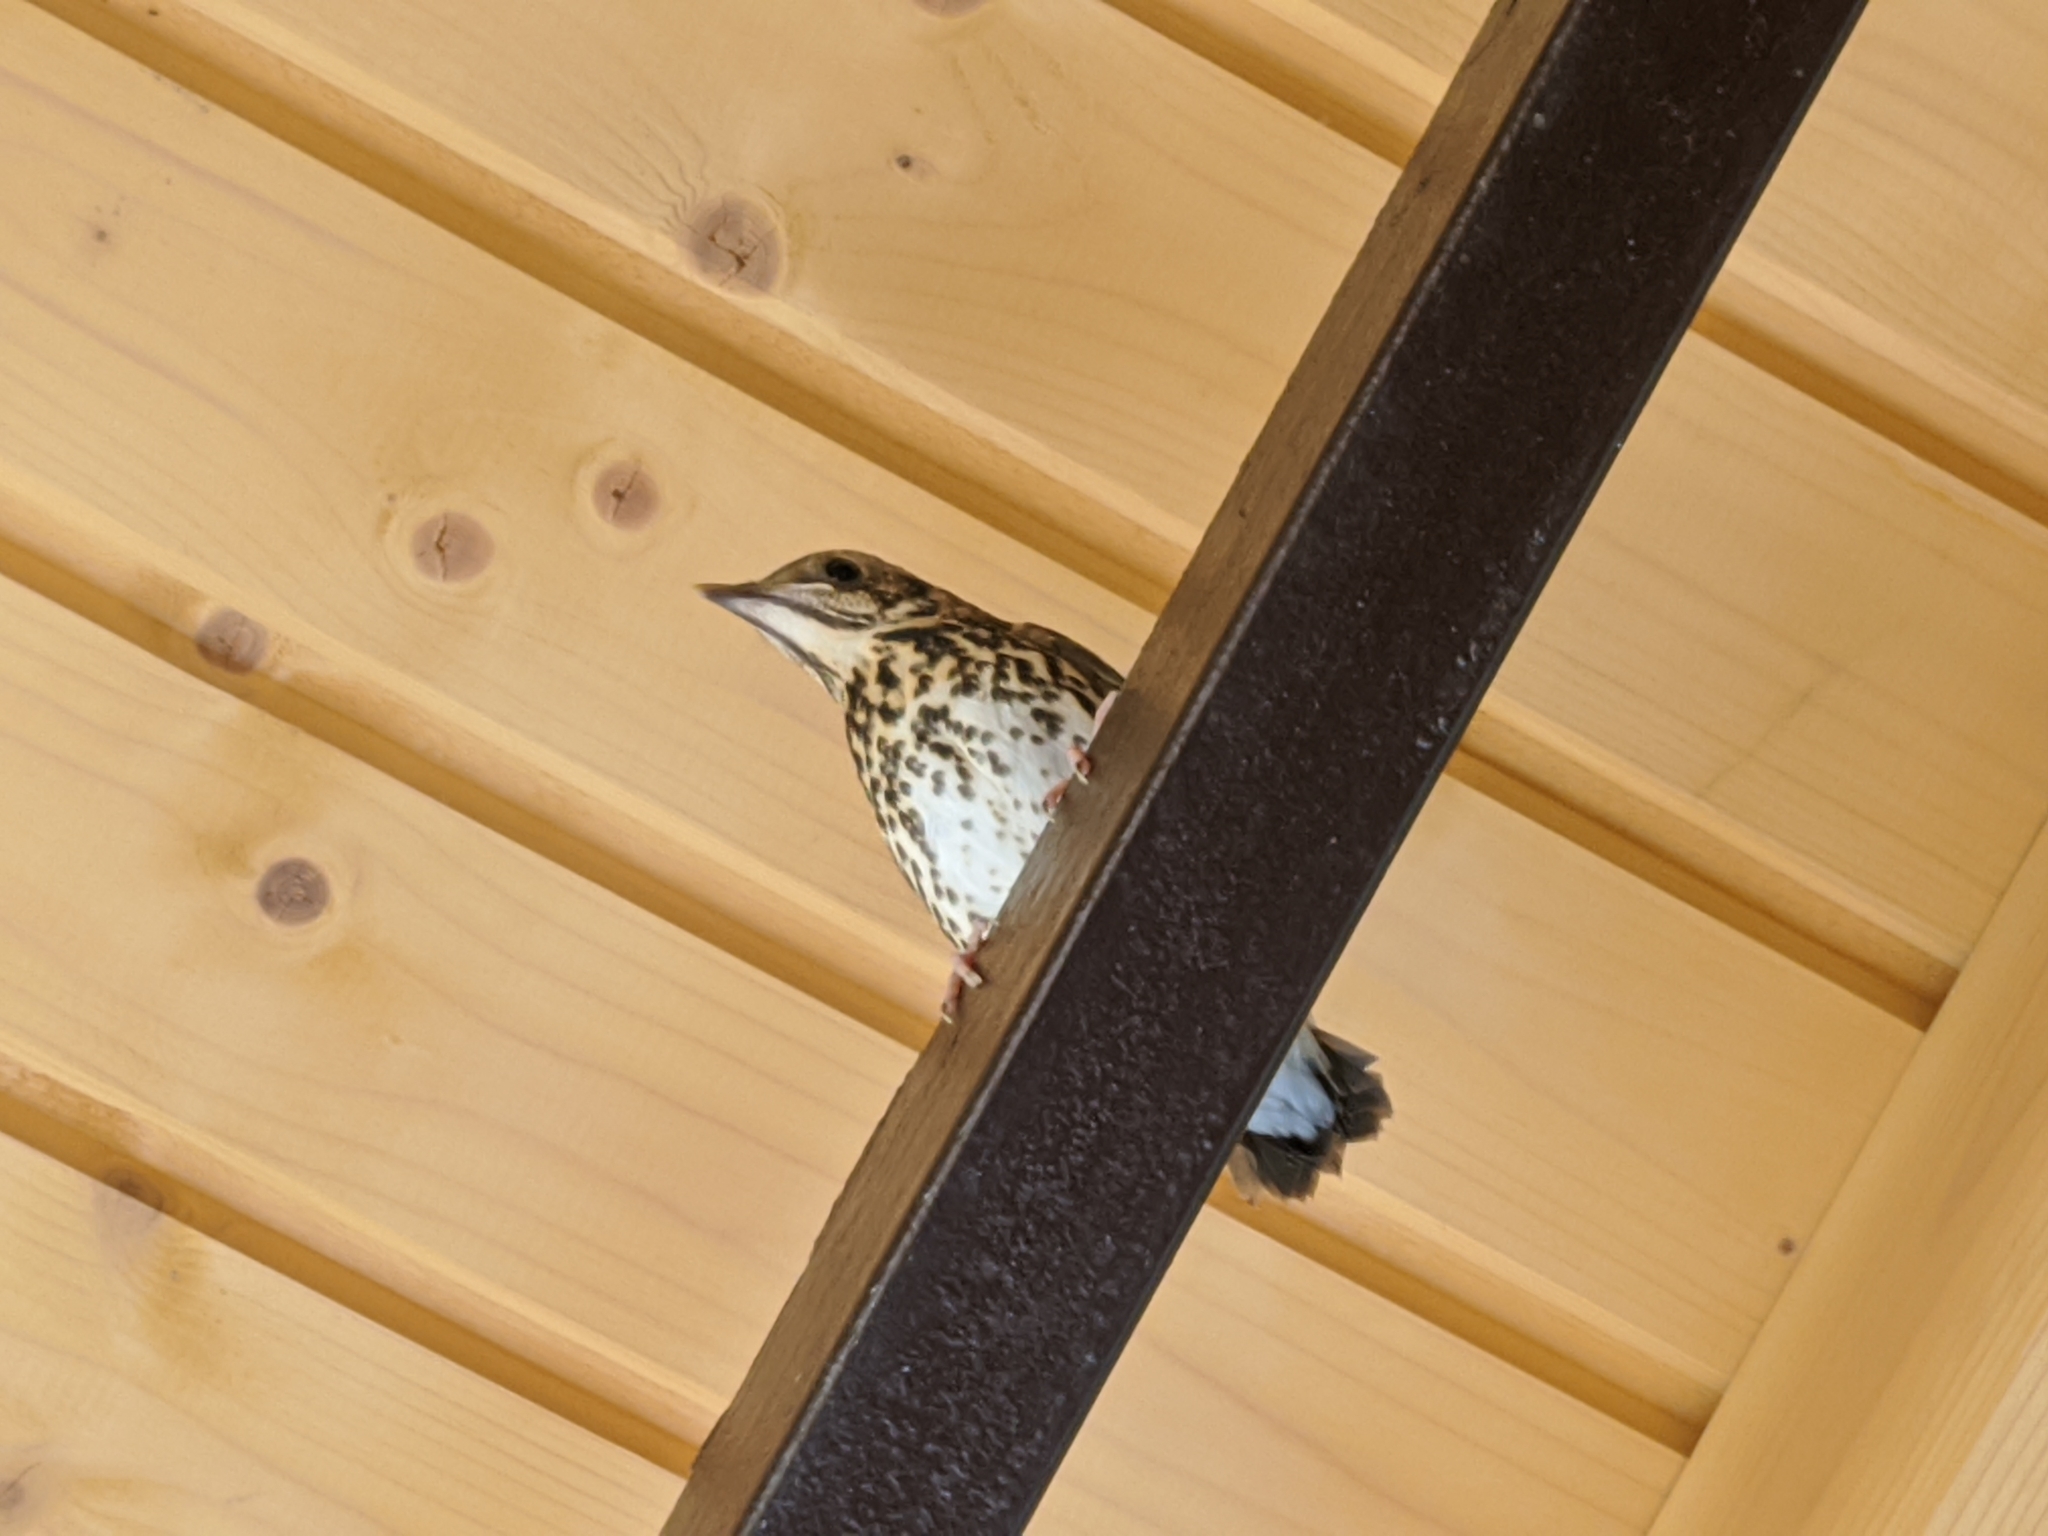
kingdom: Animalia
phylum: Chordata
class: Aves
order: Passeriformes
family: Turdidae
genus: Turdus
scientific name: Turdus philomelos
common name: Song thrush
